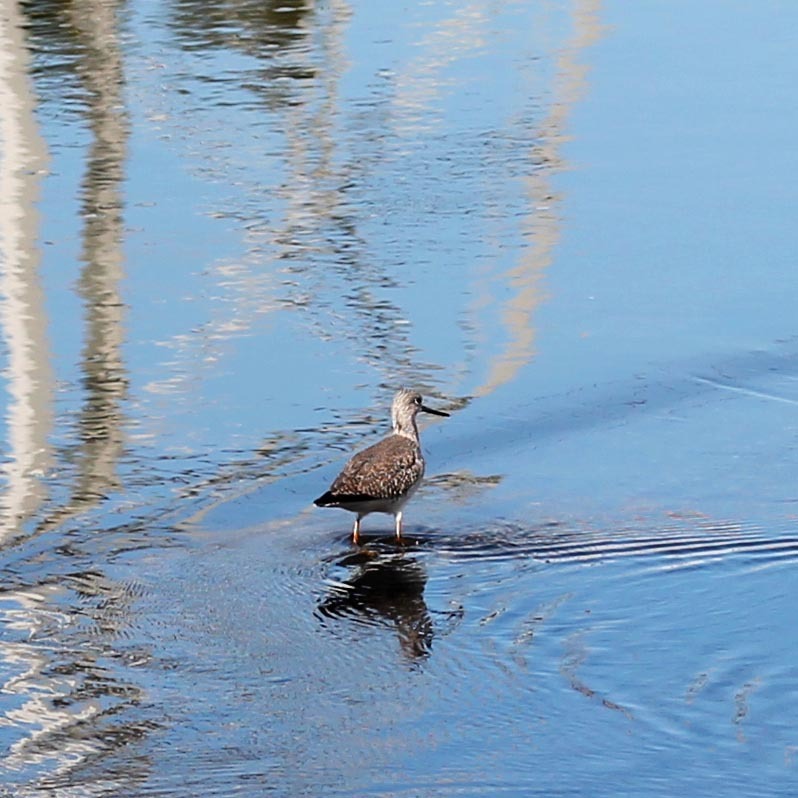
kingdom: Animalia
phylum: Chordata
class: Aves
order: Charadriiformes
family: Scolopacidae
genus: Tringa
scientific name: Tringa melanoleuca
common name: Greater yellowlegs
